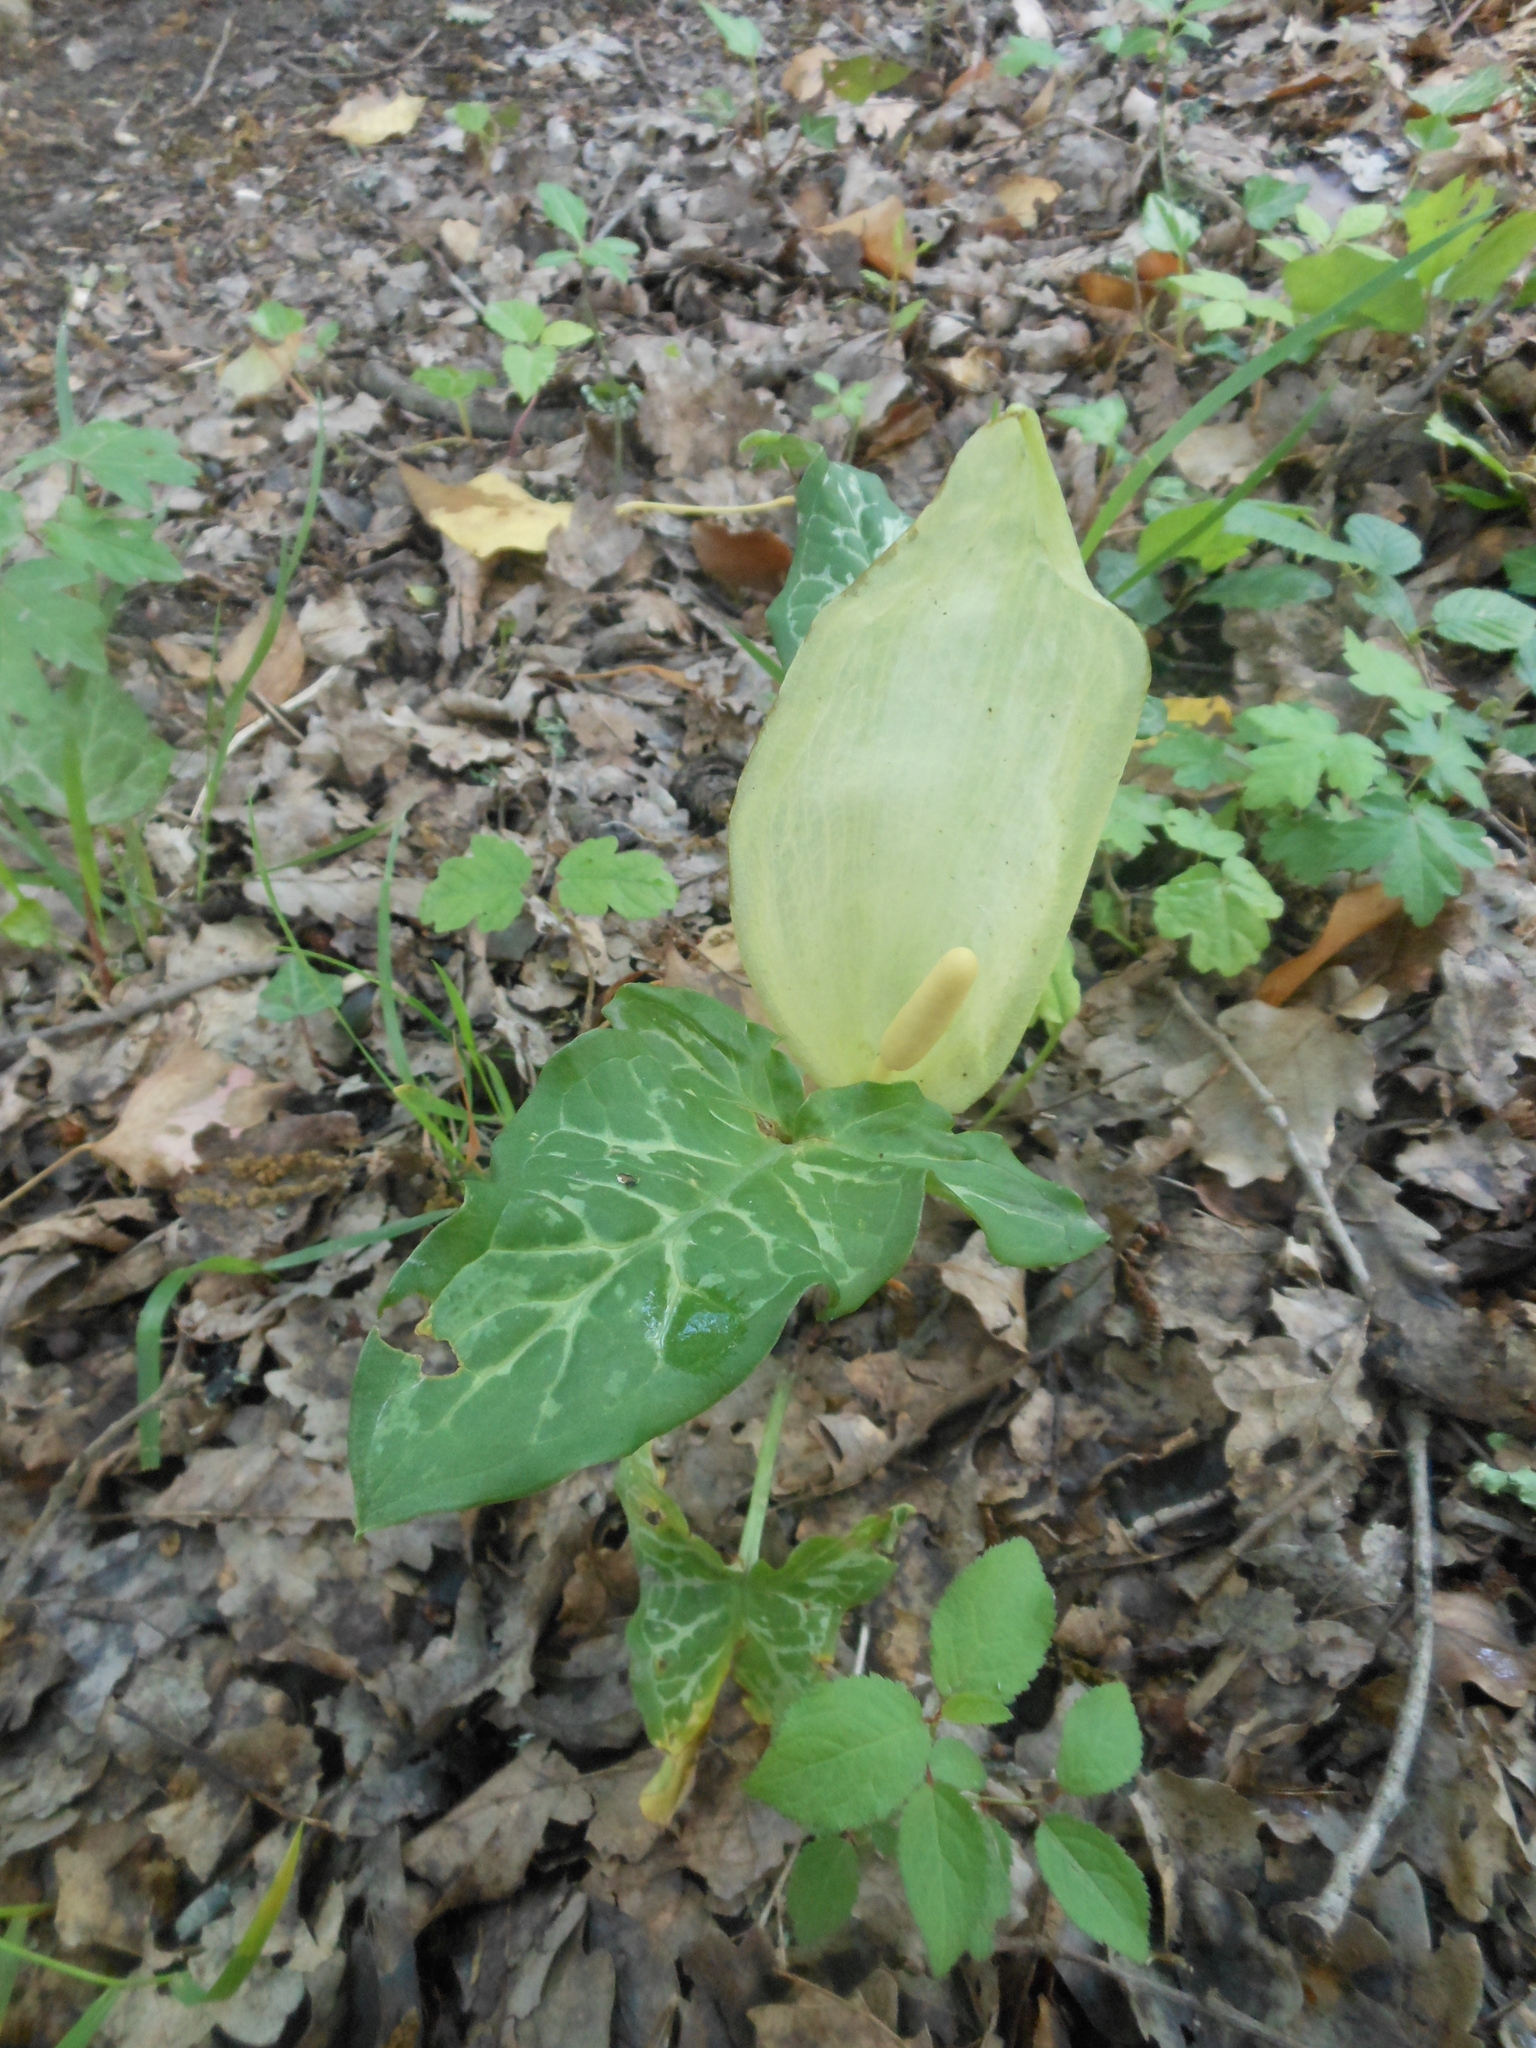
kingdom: Plantae
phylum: Tracheophyta
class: Liliopsida
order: Alismatales
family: Araceae
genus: Arum
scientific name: Arum italicum
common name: Italian lords-and-ladies
